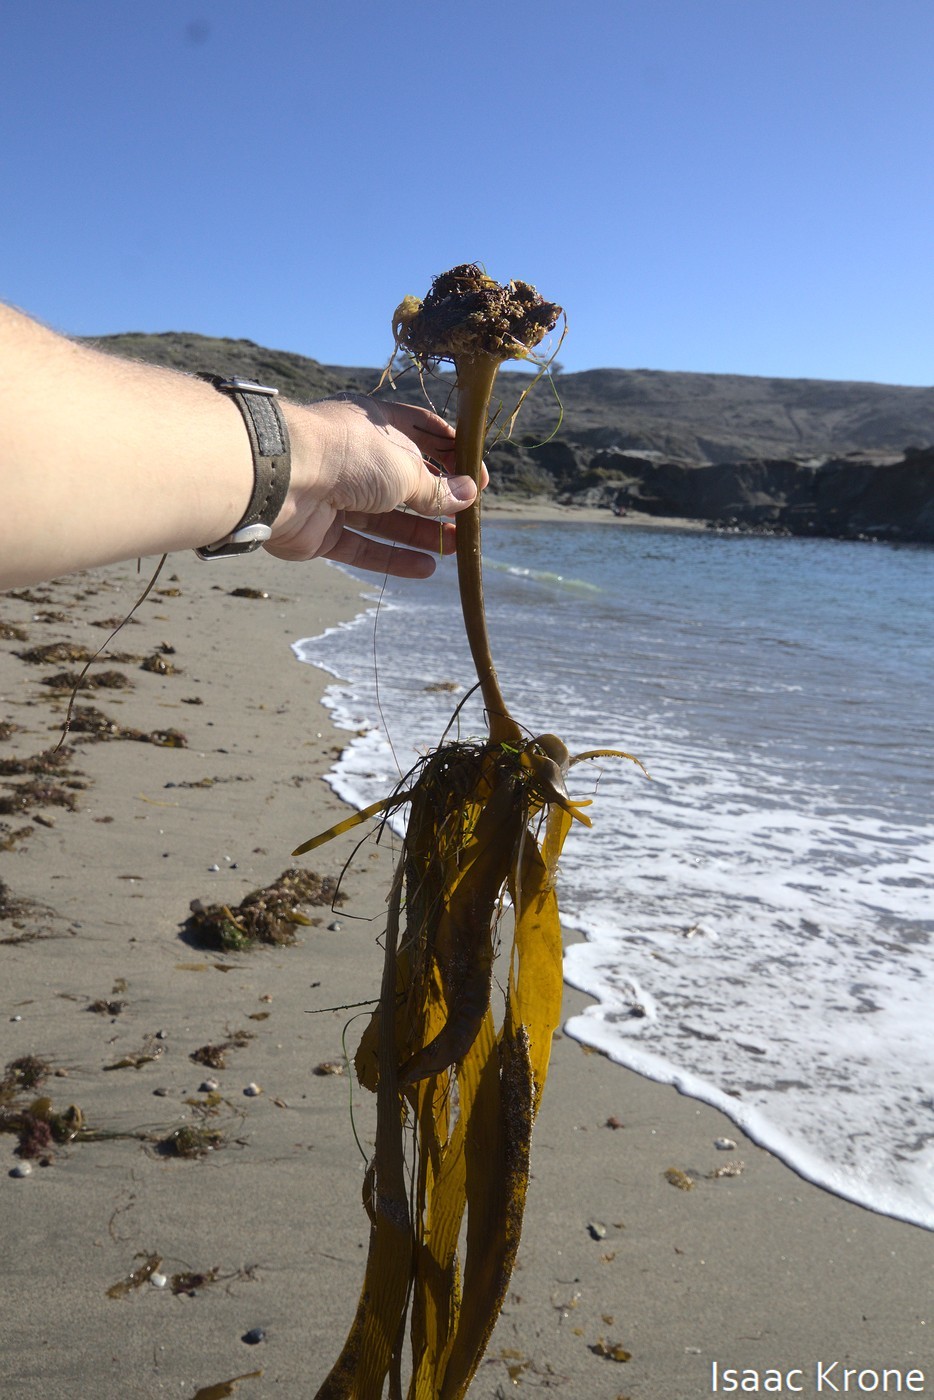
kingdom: Chromista
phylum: Ochrophyta
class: Phaeophyceae
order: Laminariales
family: Lessoniaceae
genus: Eisenia
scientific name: Eisenia arborea
